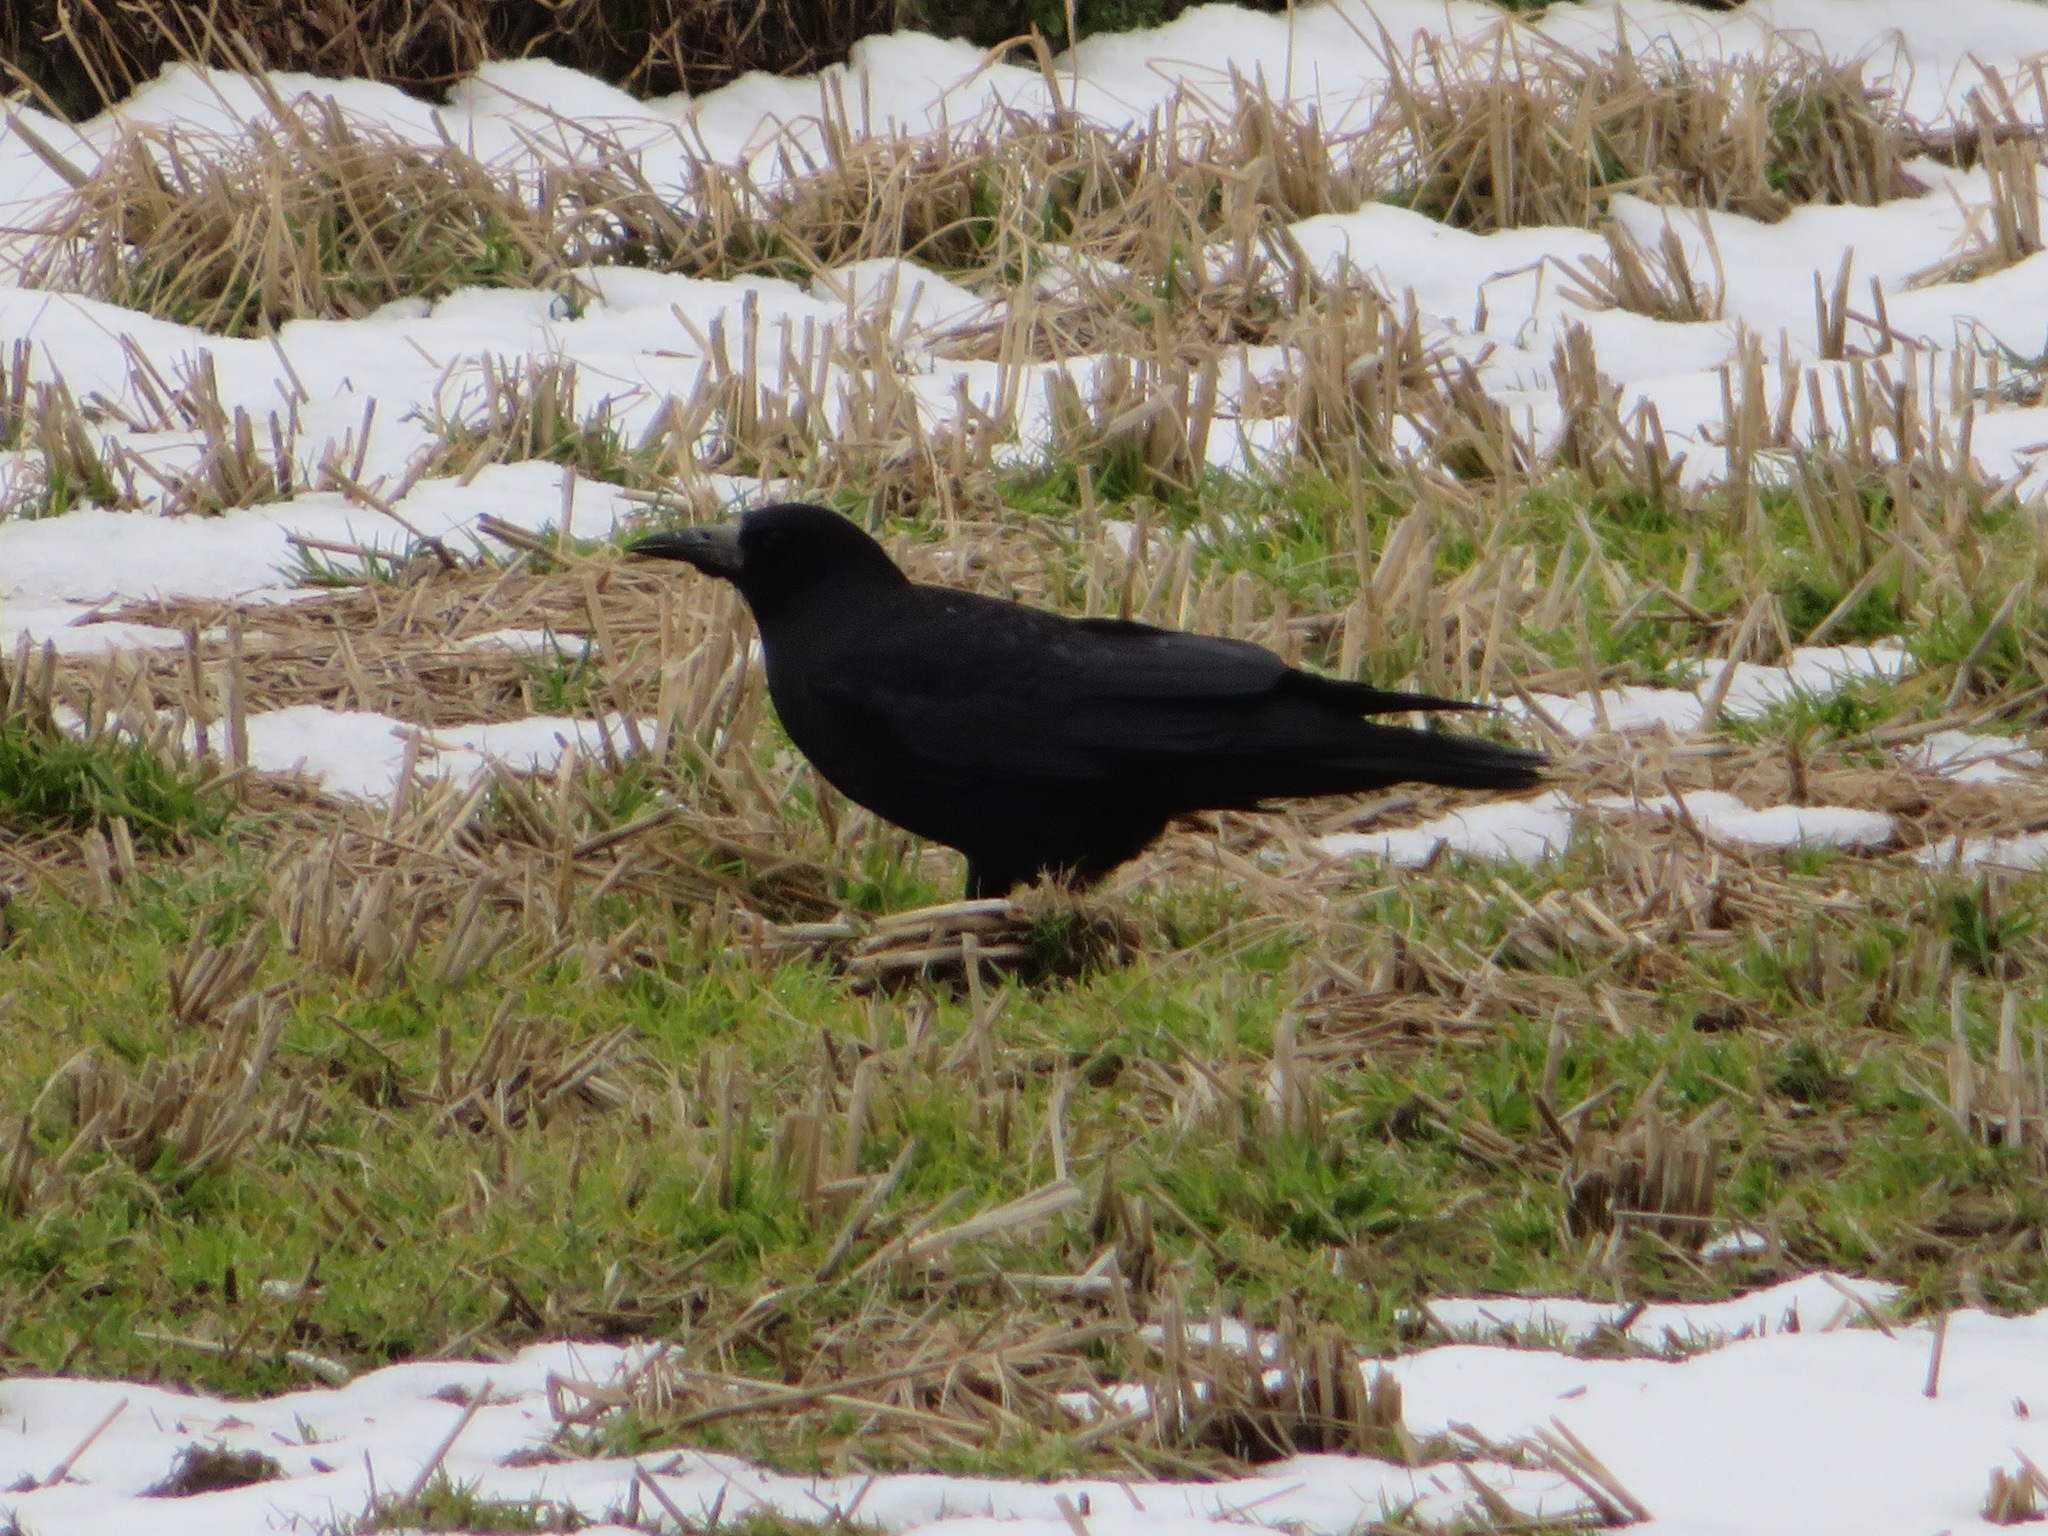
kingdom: Animalia
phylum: Chordata
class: Aves
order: Passeriformes
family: Corvidae
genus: Corvus
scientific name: Corvus frugilegus
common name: Rook
